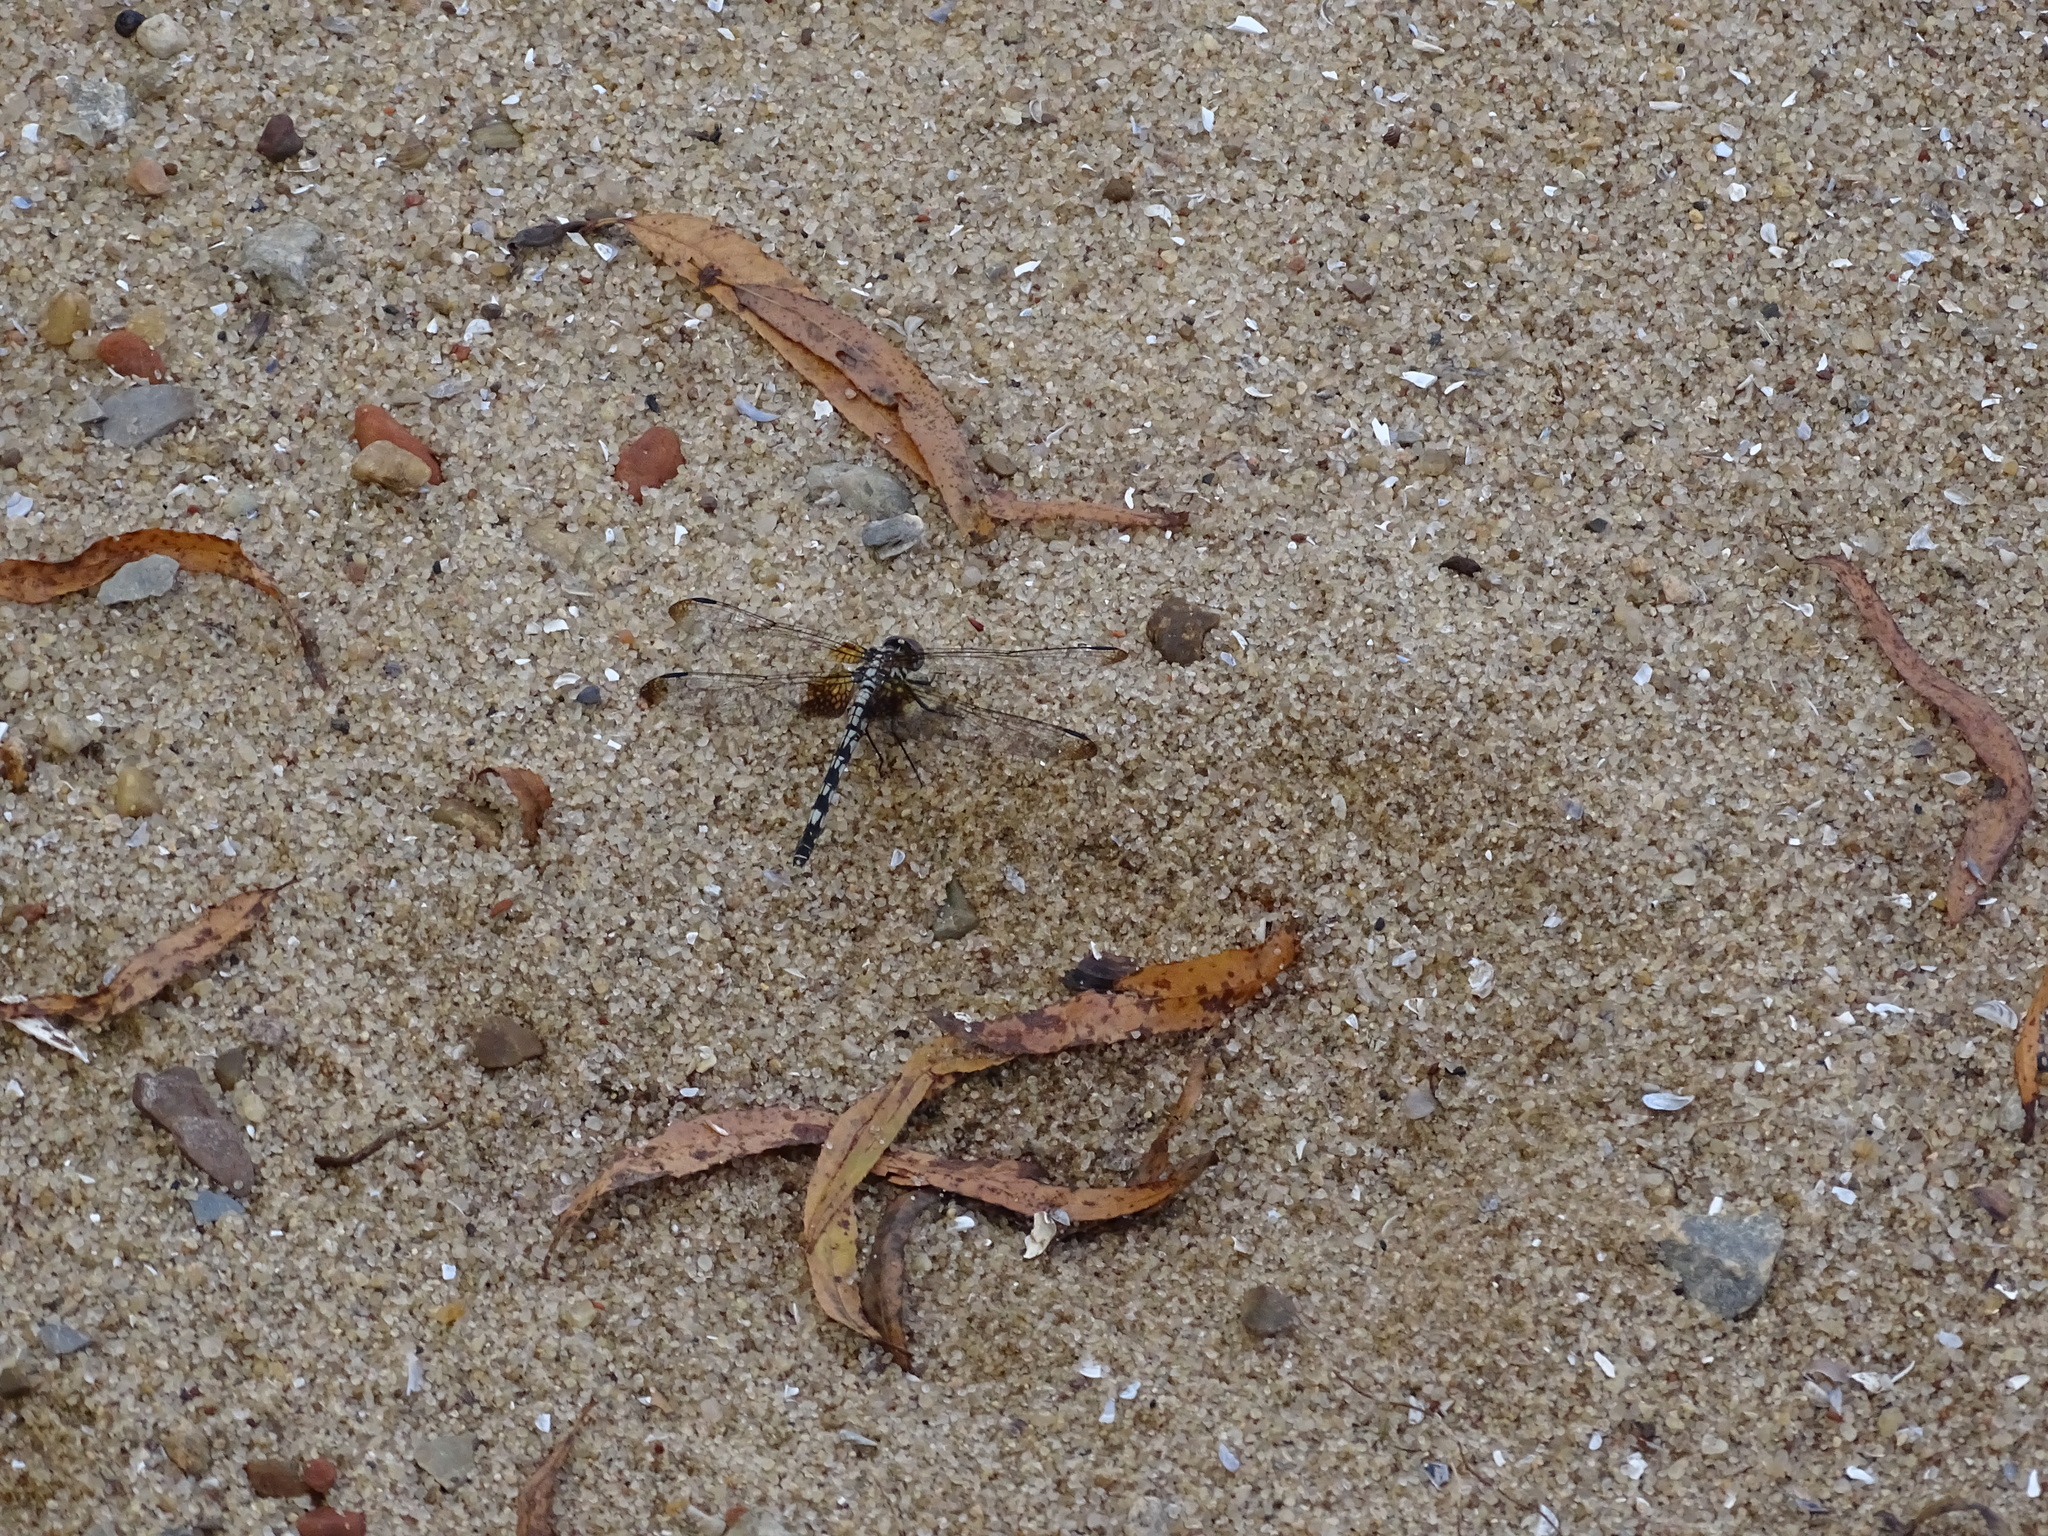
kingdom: Animalia
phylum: Arthropoda
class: Insecta
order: Odonata
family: Libellulidae
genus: Dythemis
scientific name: Dythemis fugax
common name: Checkered setwing
